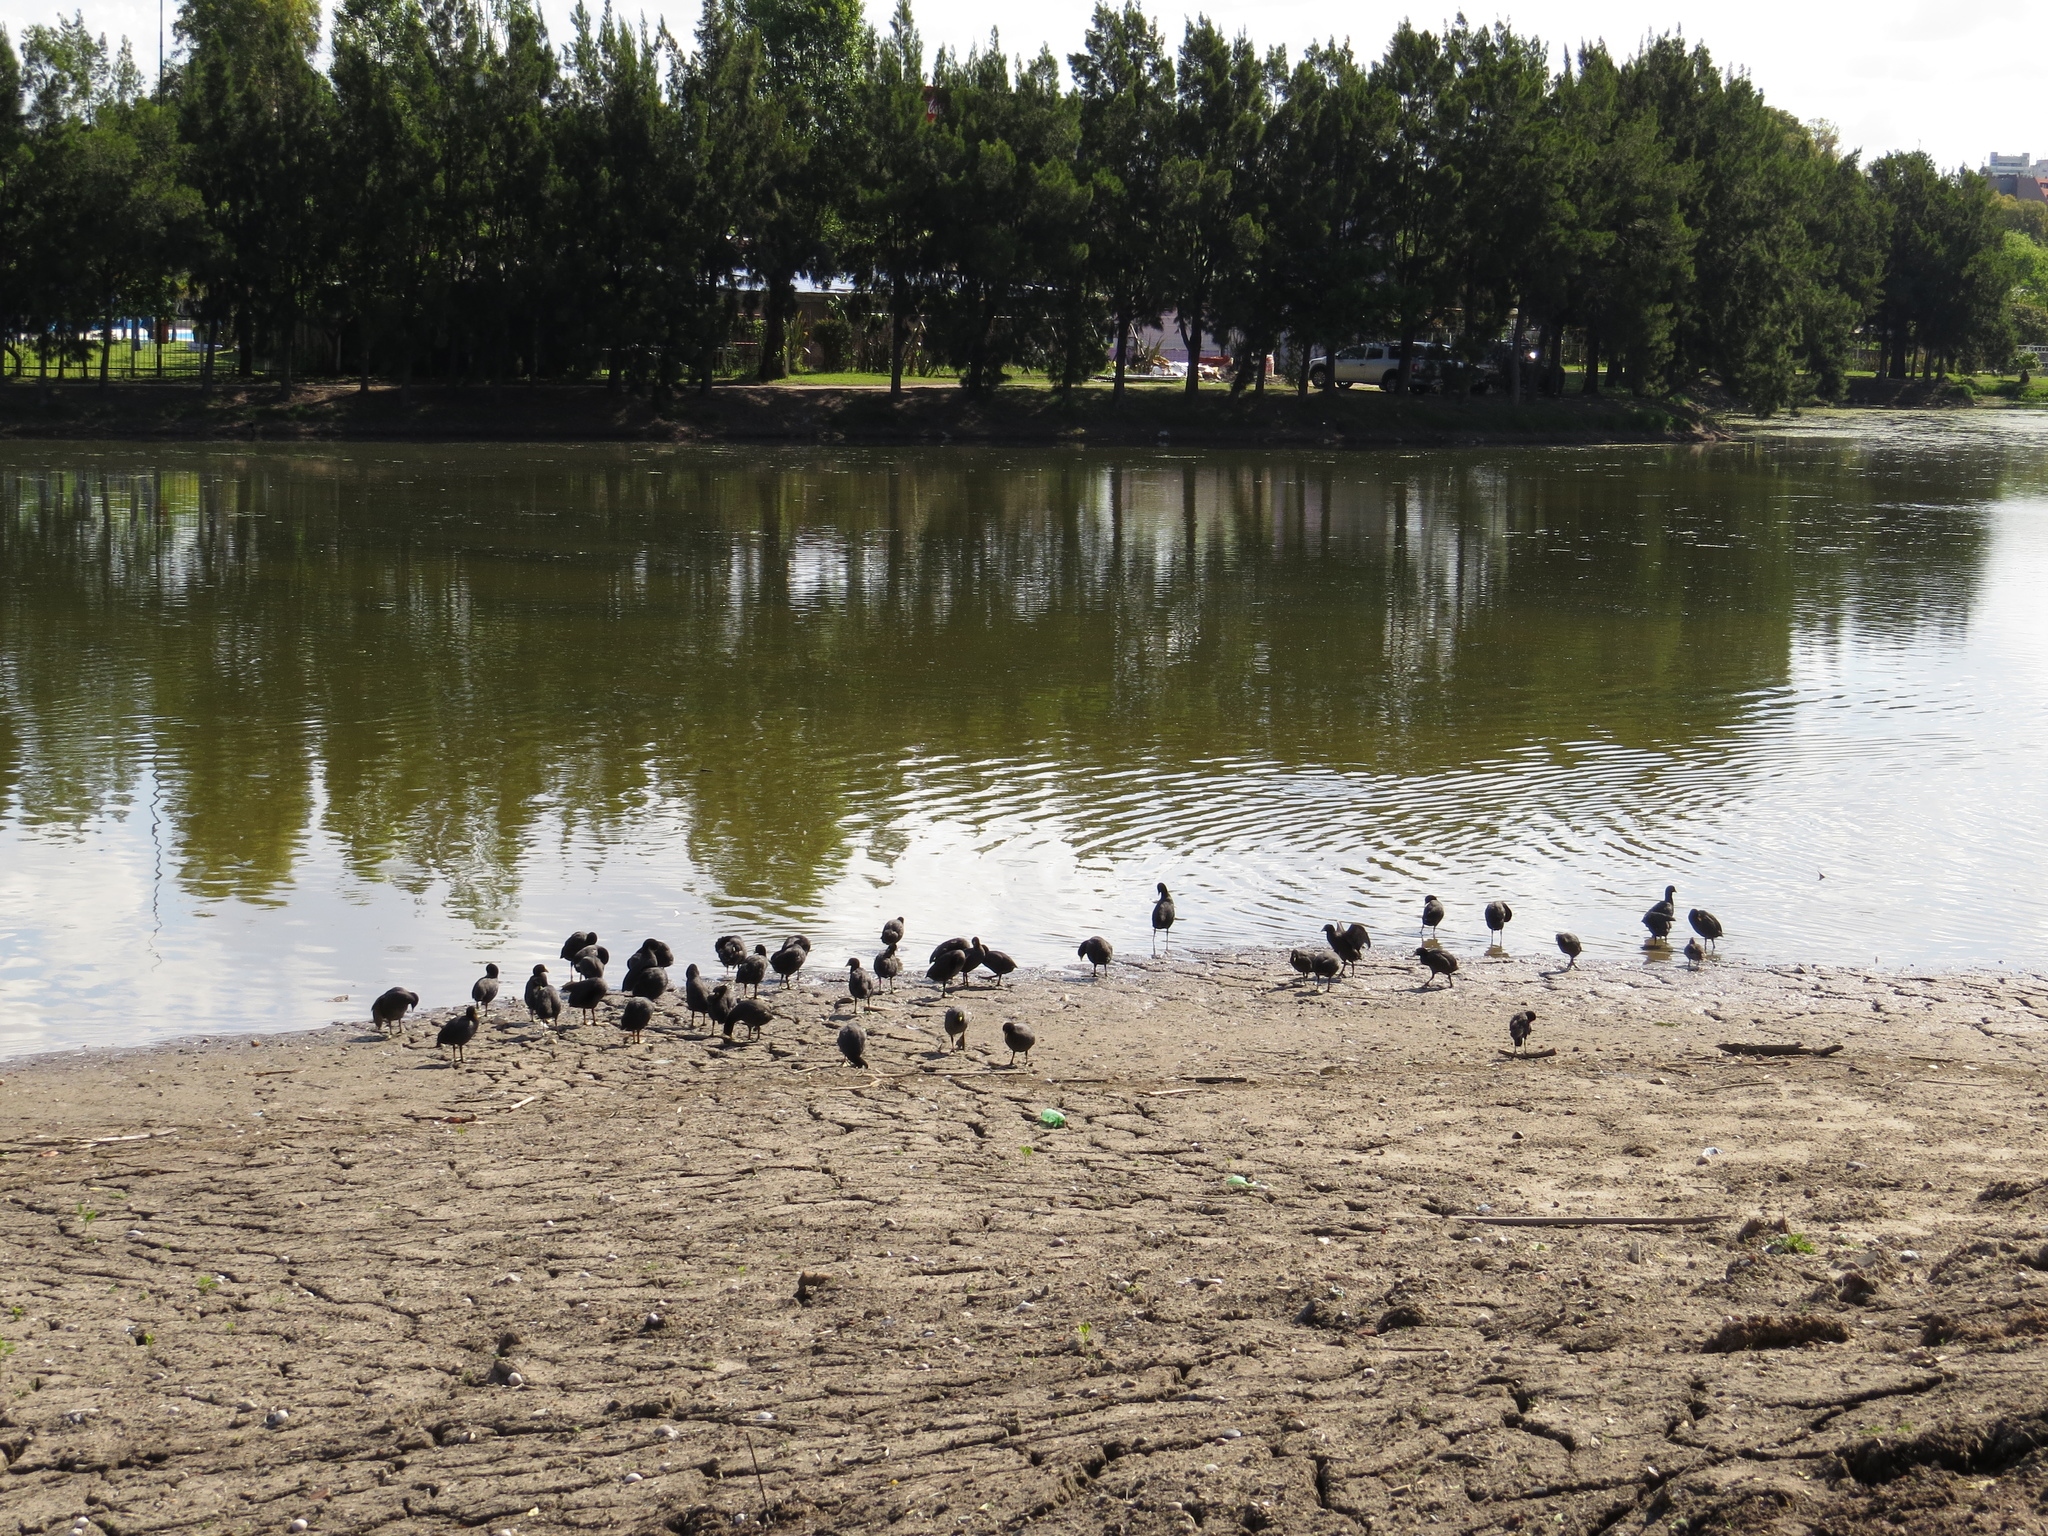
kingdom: Animalia
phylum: Chordata
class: Aves
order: Gruiformes
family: Rallidae
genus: Fulica
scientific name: Fulica
